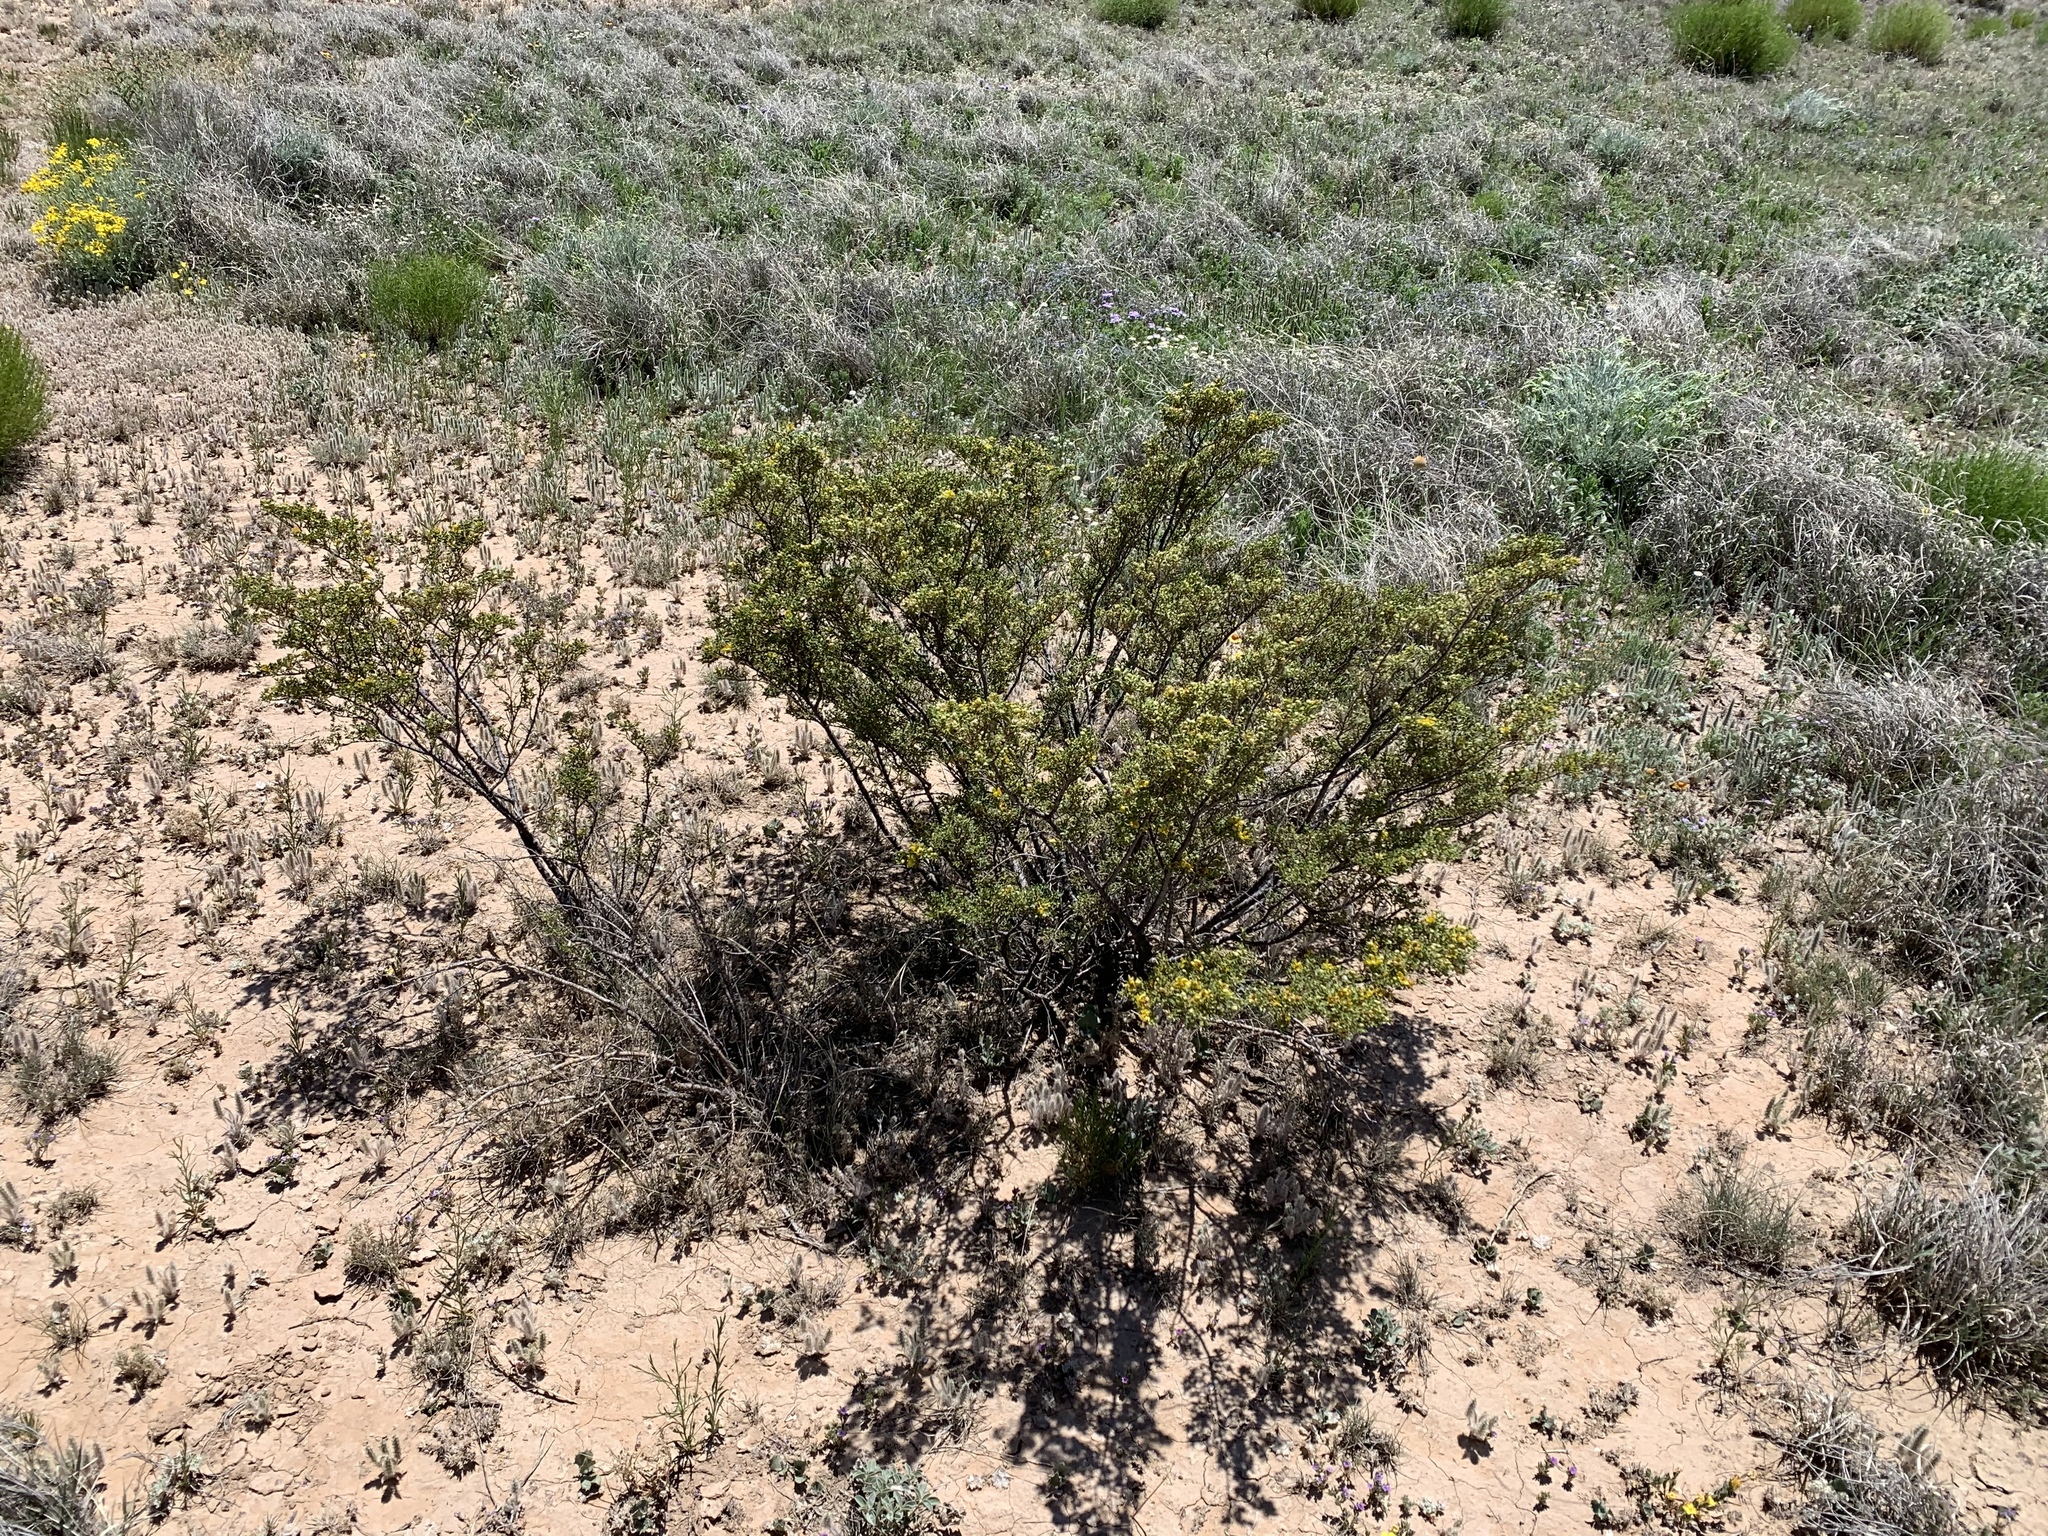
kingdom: Plantae
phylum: Tracheophyta
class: Magnoliopsida
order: Zygophyllales
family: Zygophyllaceae
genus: Larrea
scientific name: Larrea tridentata
